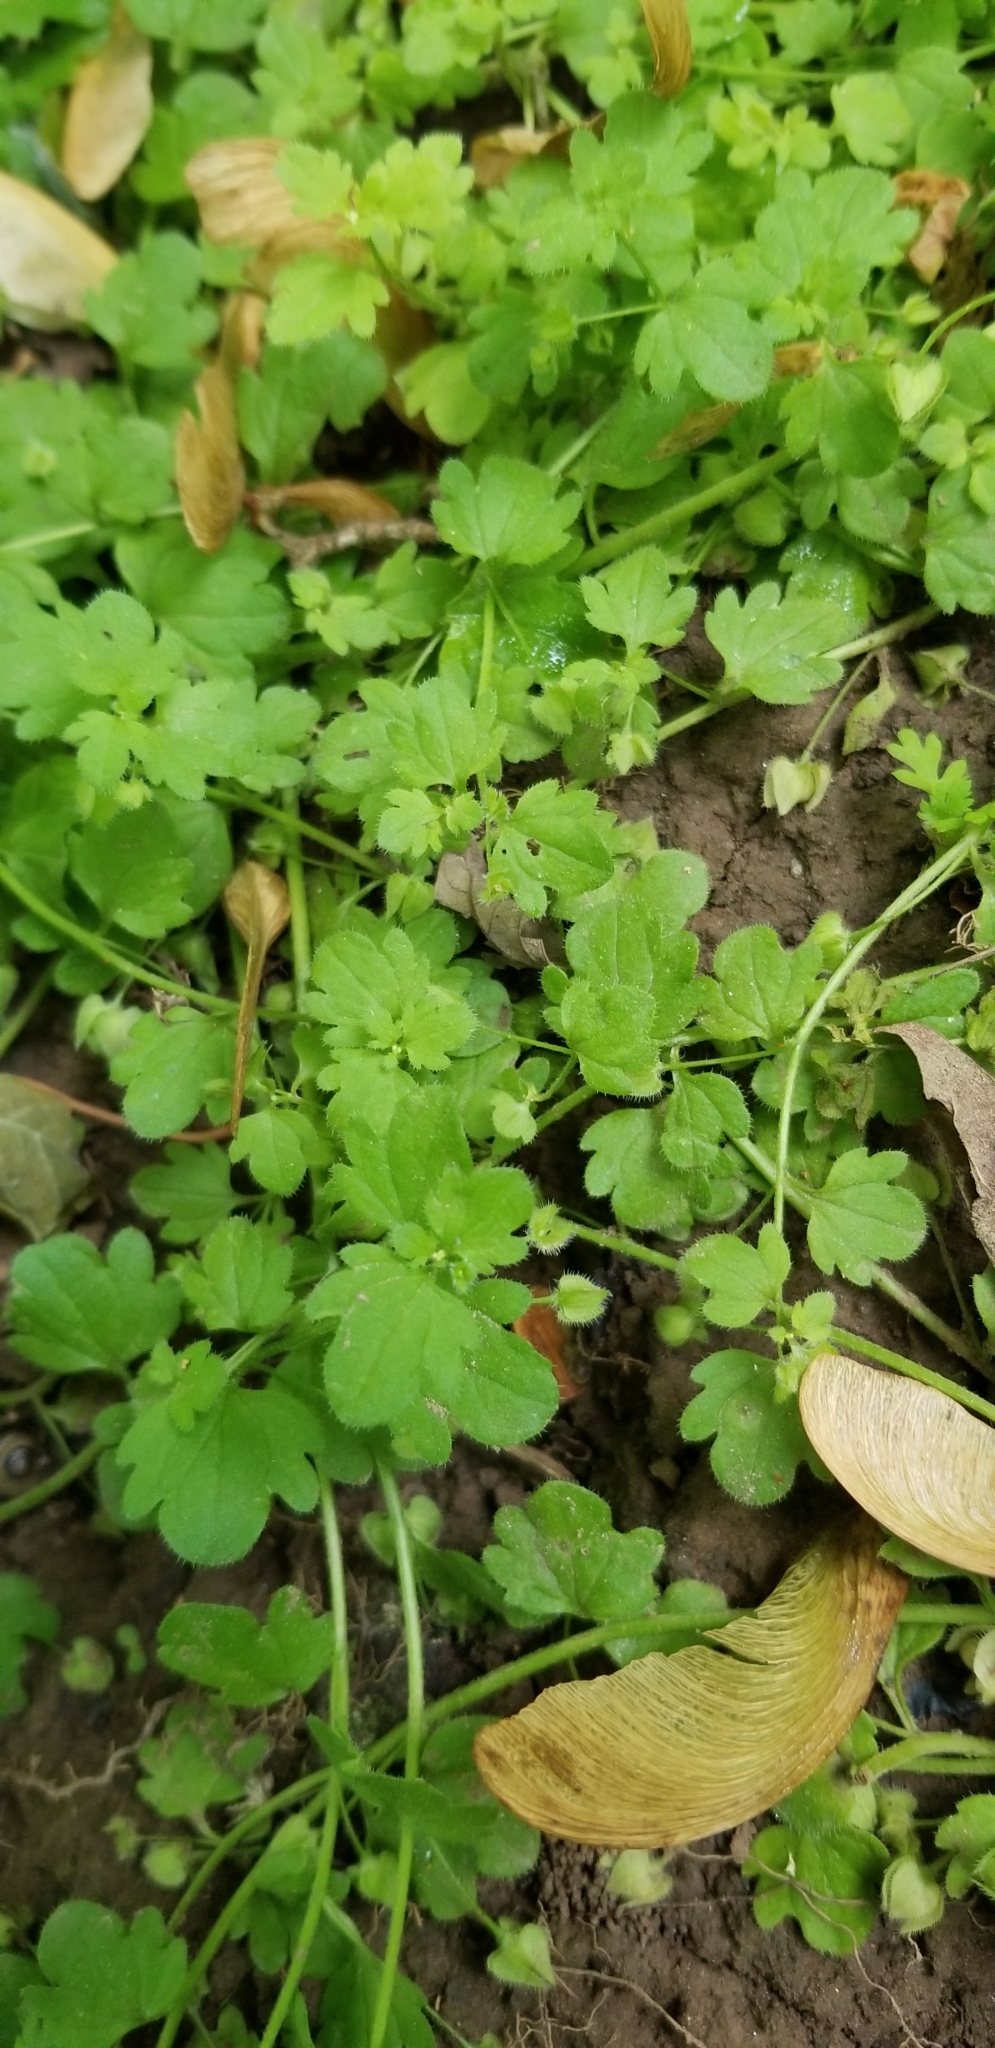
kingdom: Plantae
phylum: Tracheophyta
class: Magnoliopsida
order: Lamiales
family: Plantaginaceae
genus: Veronica
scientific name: Veronica hederifolia
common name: Ivy-leaved speedwell
